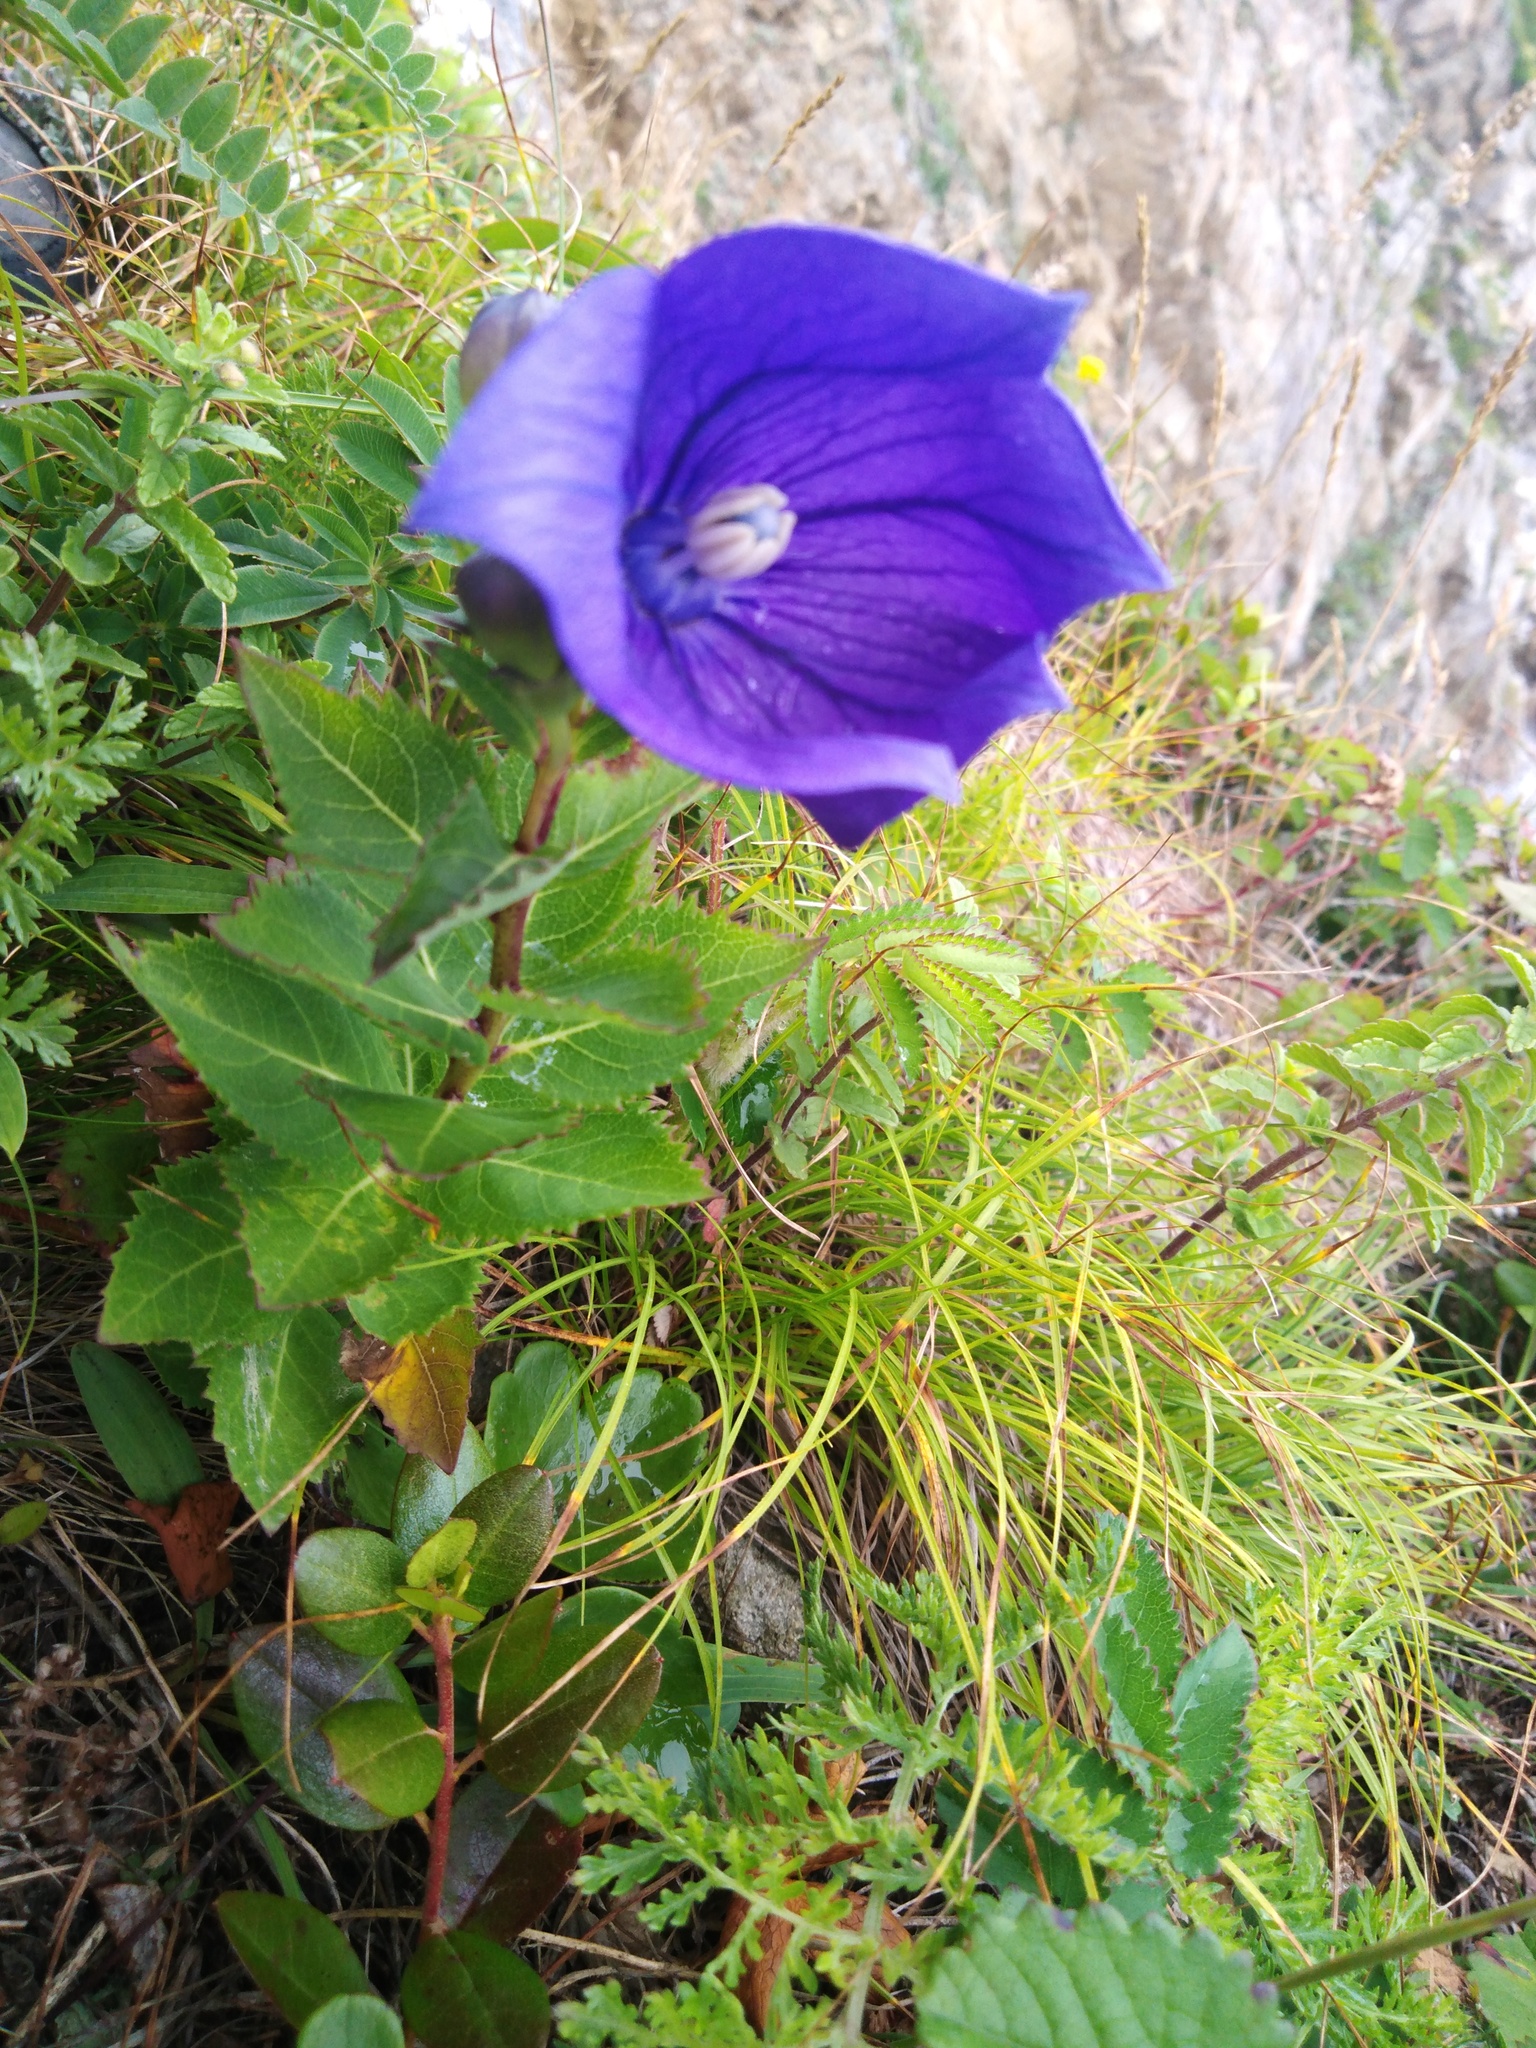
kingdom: Plantae
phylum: Tracheophyta
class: Magnoliopsida
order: Asterales
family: Campanulaceae
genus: Platycodon
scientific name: Platycodon grandiflorus
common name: Balloon-flower
